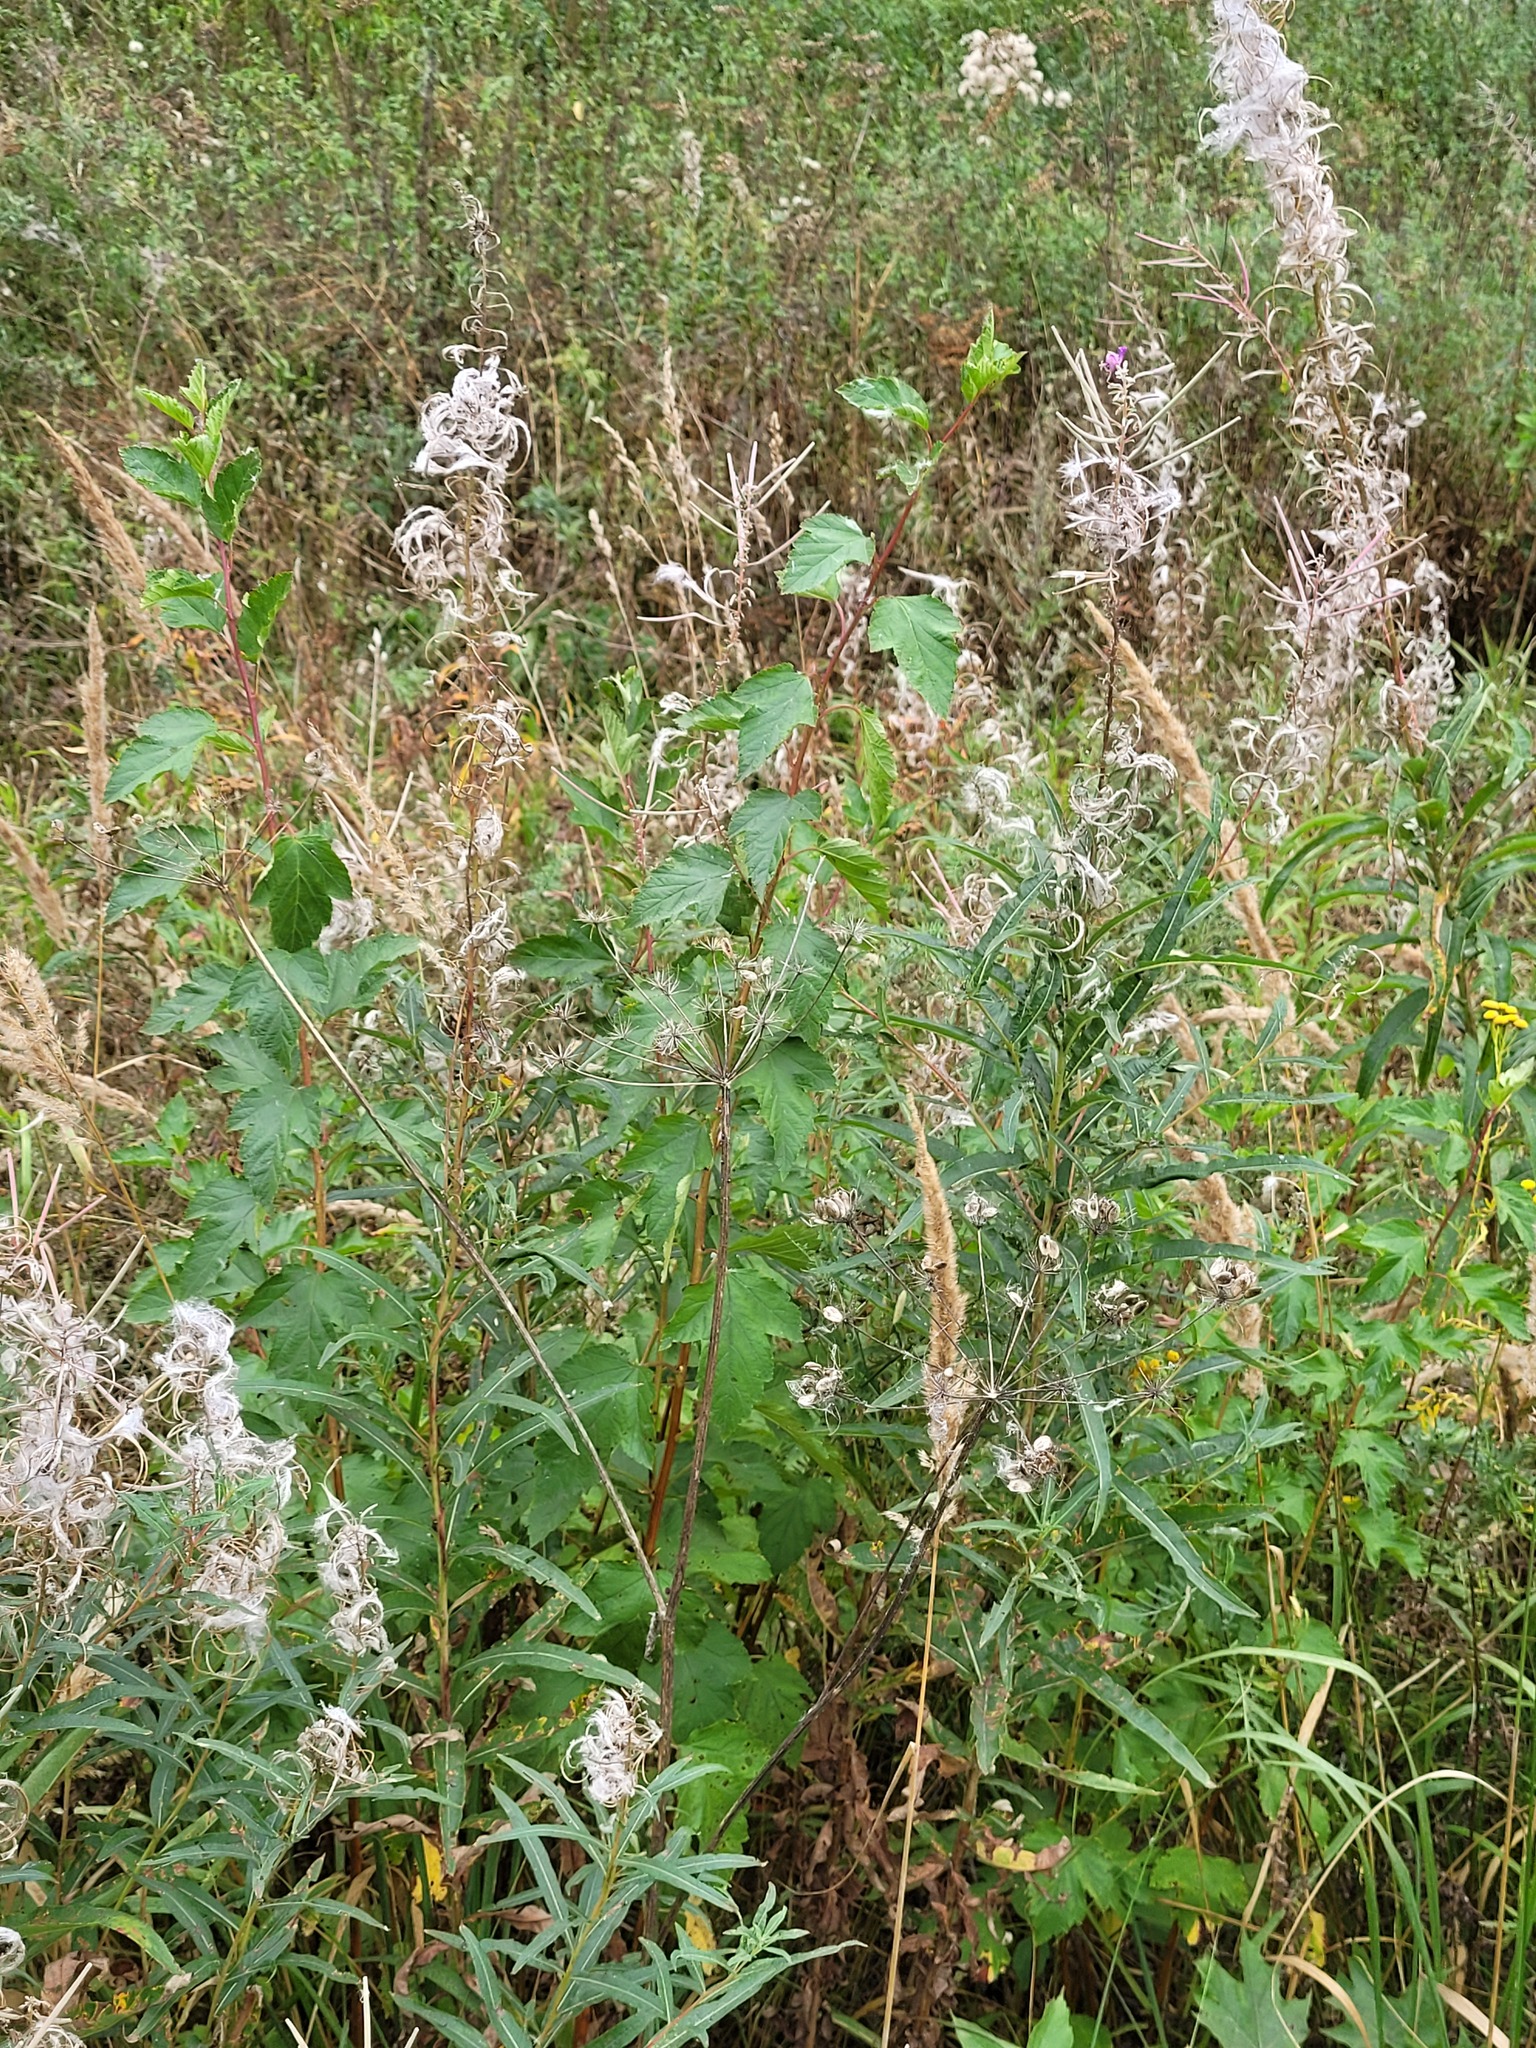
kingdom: Plantae
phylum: Tracheophyta
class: Magnoliopsida
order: Rosales
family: Rosaceae
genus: Physocarpus
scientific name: Physocarpus opulifolius
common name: Ninebark
